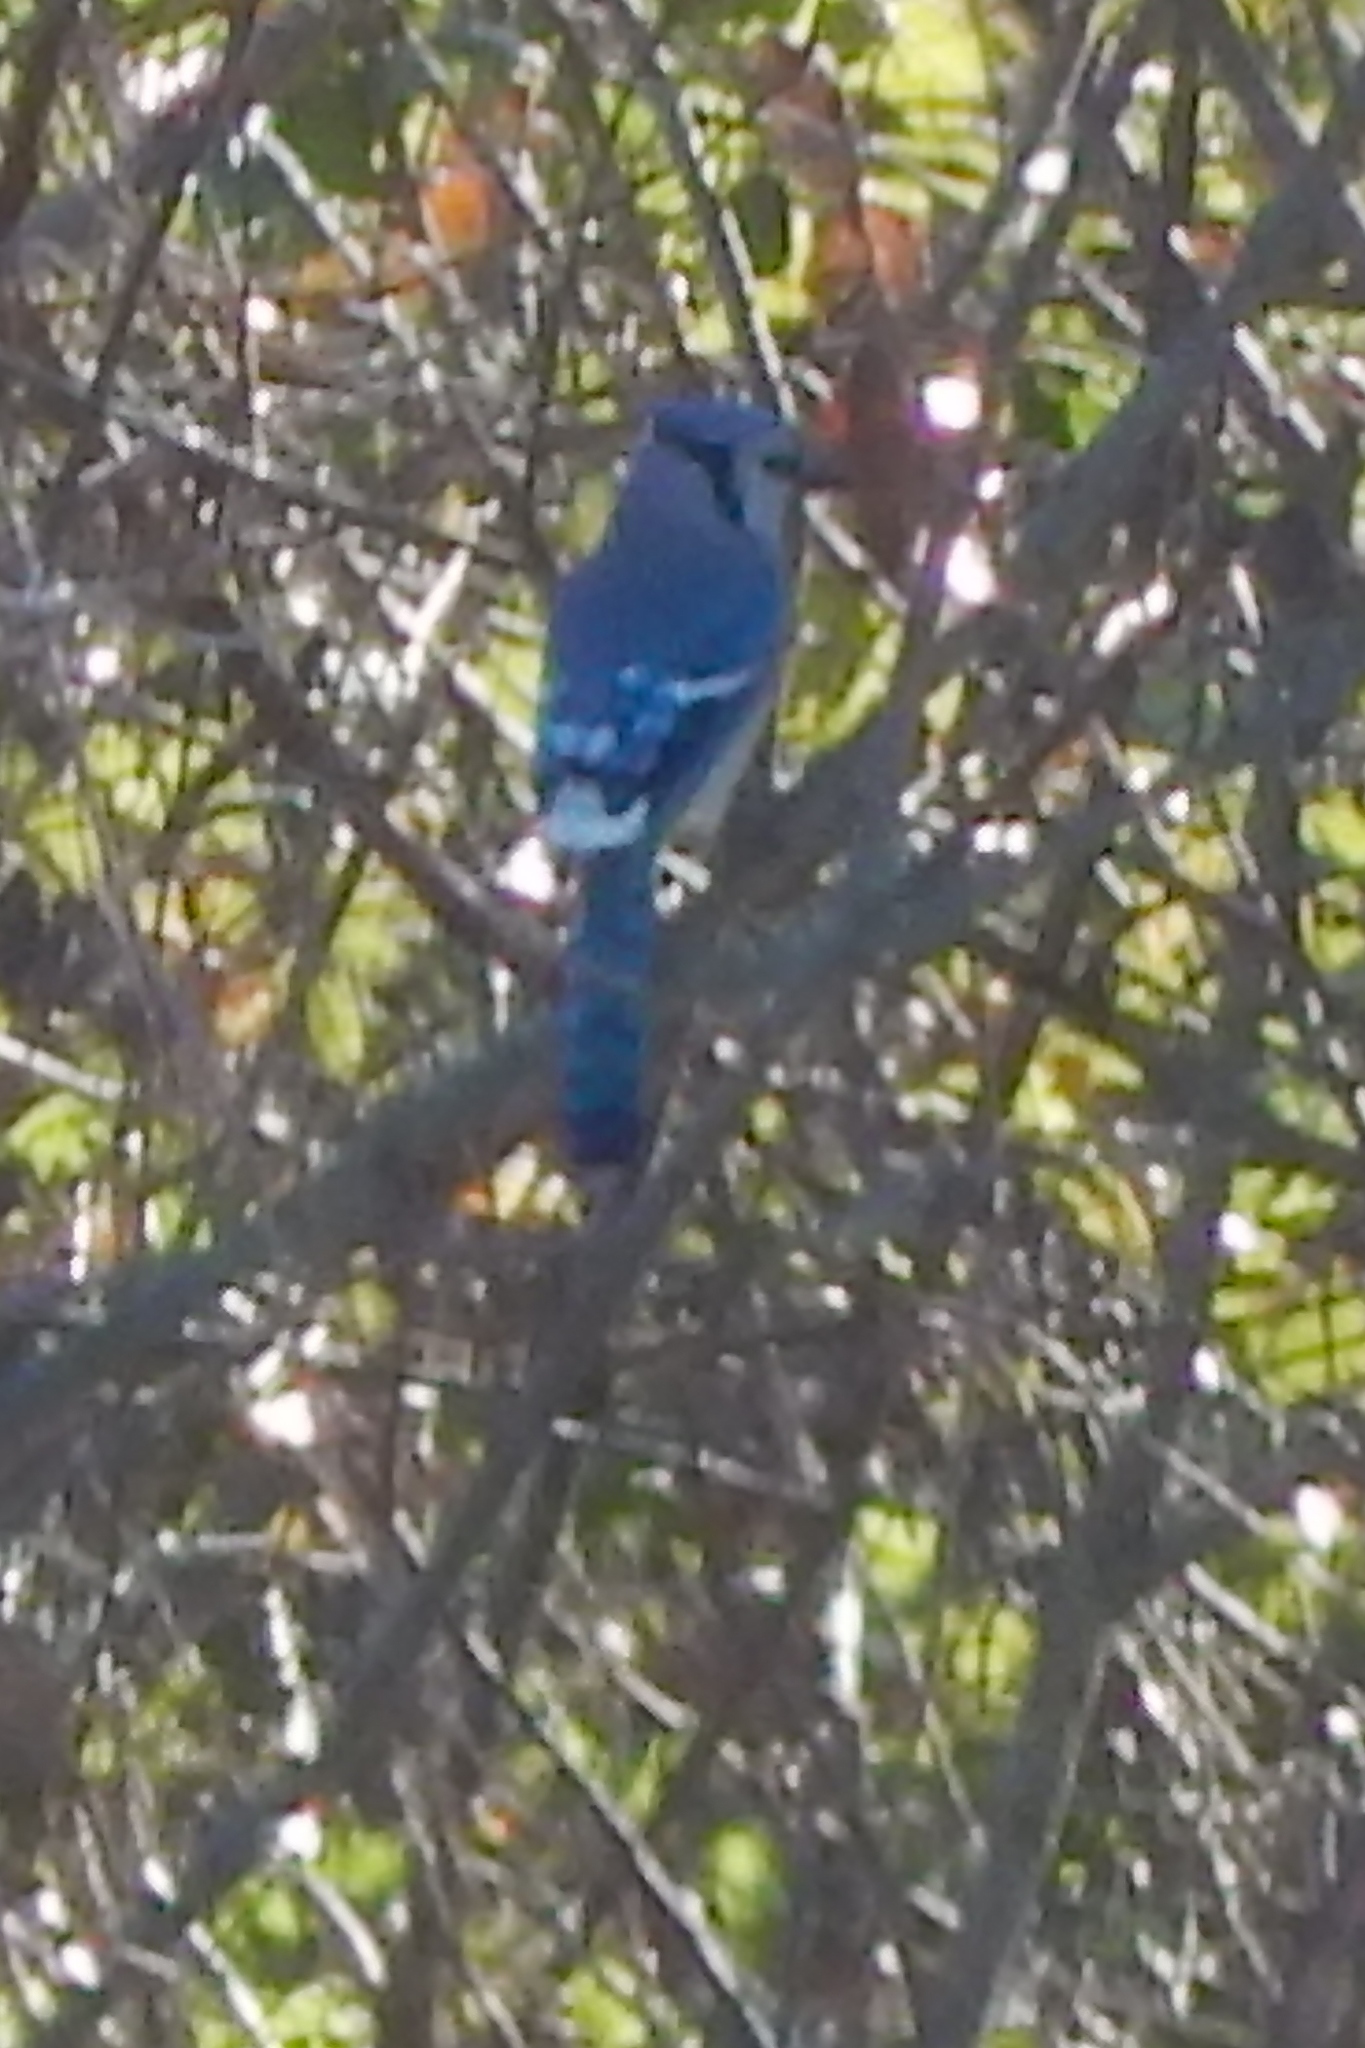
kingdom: Animalia
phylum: Chordata
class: Aves
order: Passeriformes
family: Corvidae
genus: Cyanocitta
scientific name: Cyanocitta cristata
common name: Blue jay
